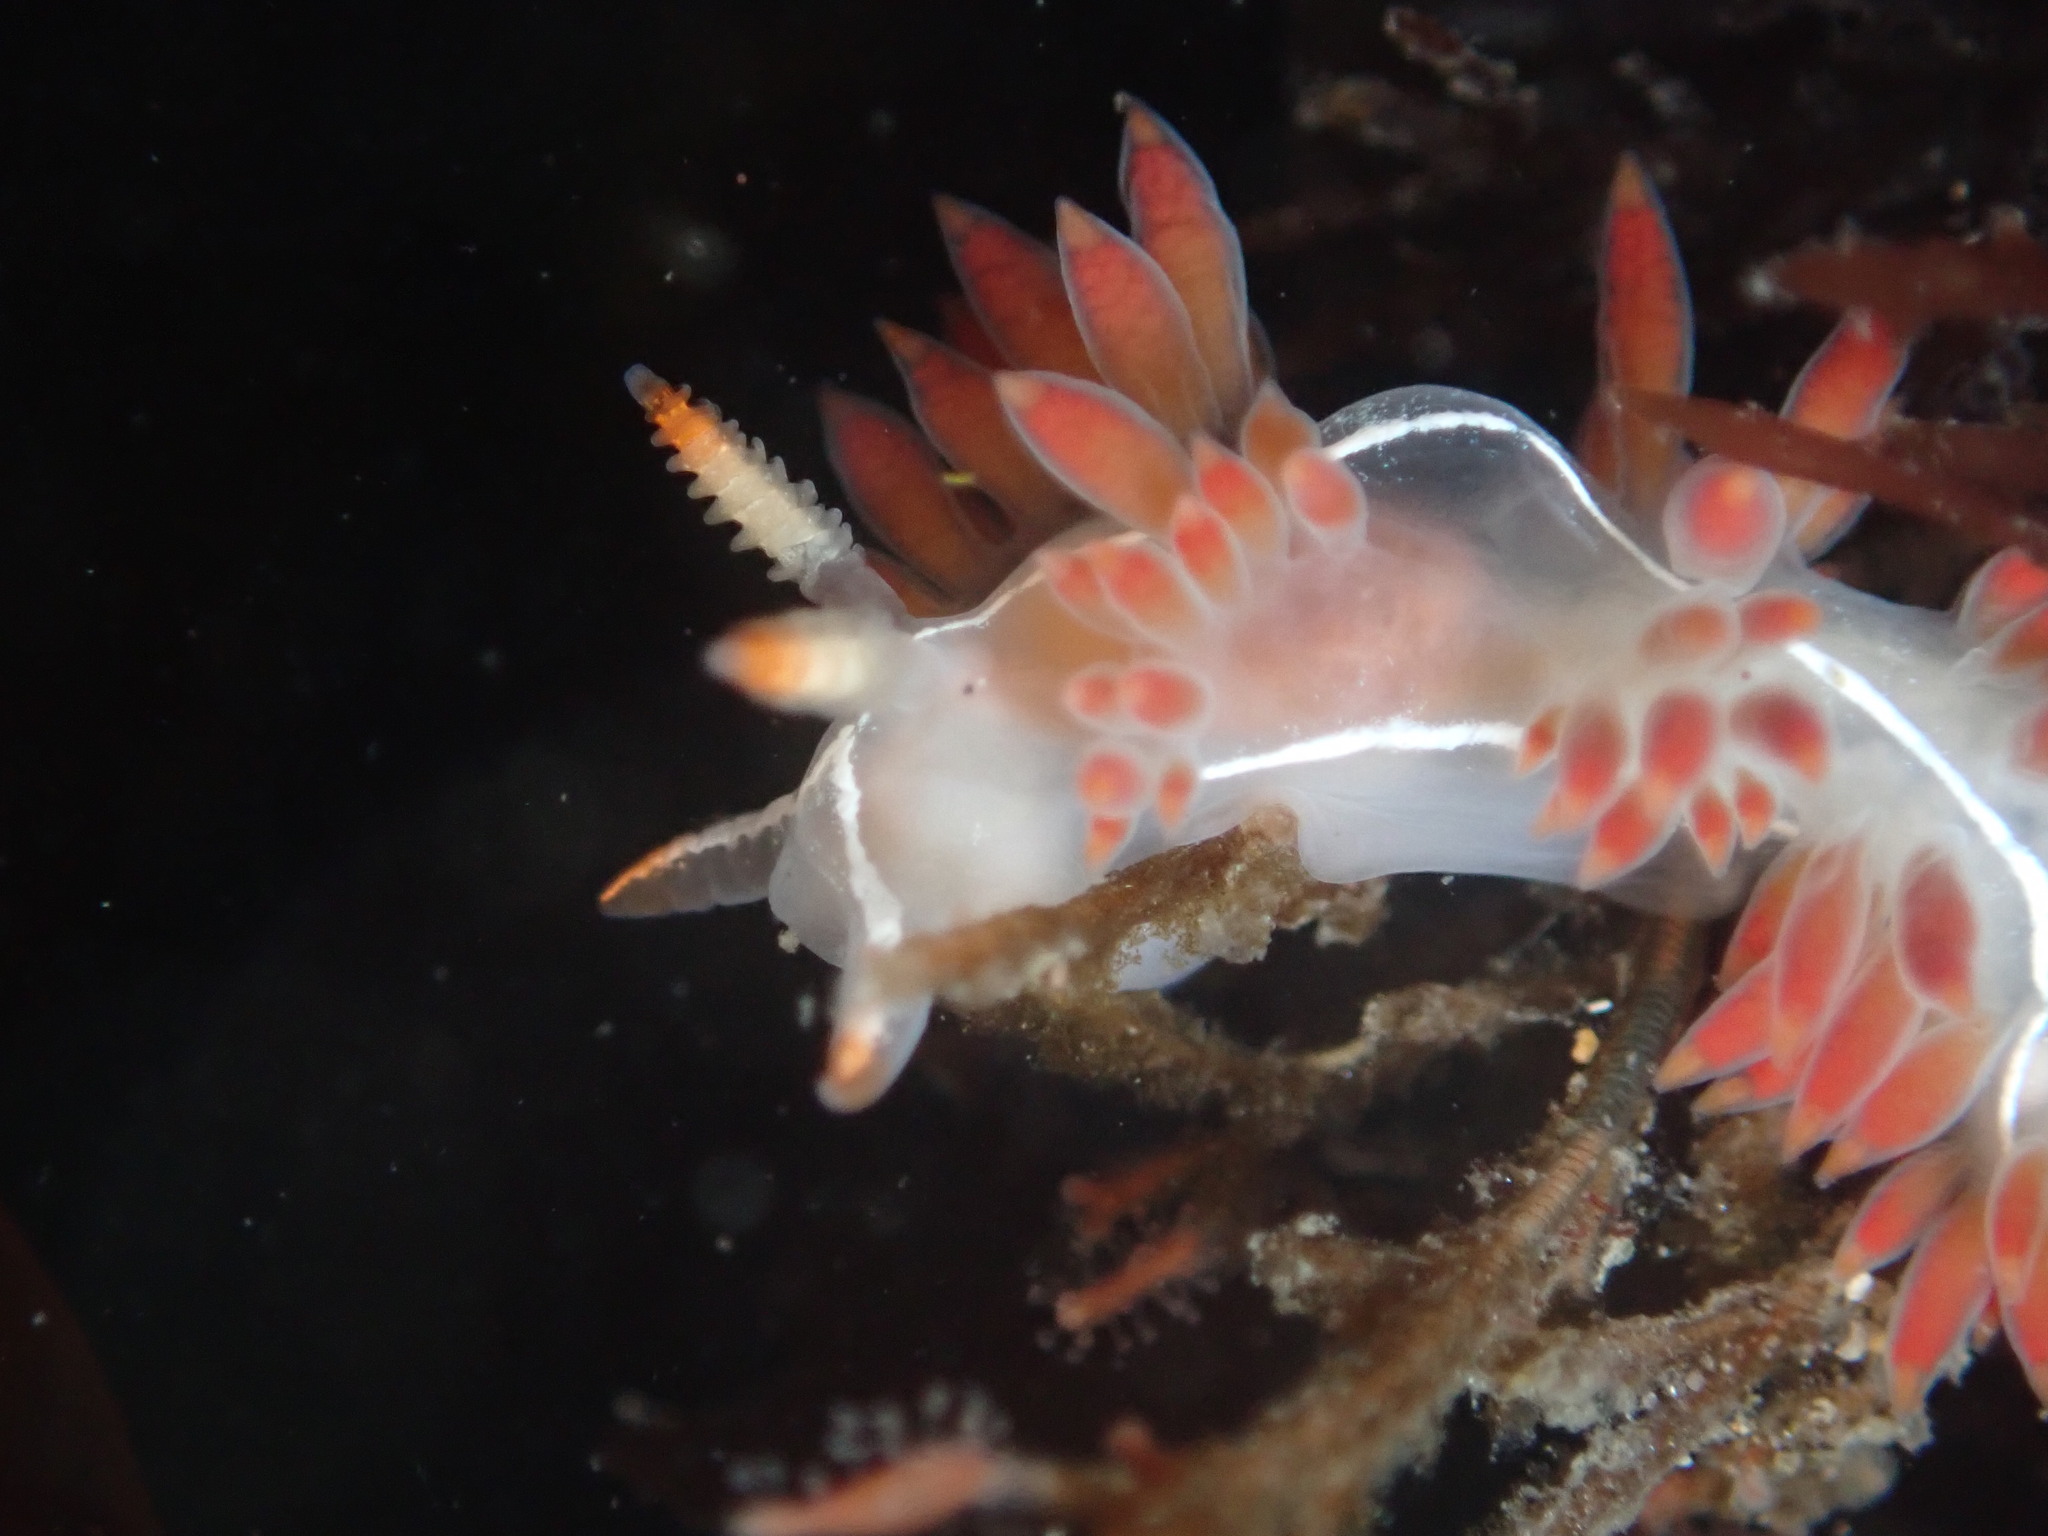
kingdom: Animalia
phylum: Mollusca
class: Gastropoda
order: Nudibranchia
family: Coryphellidae
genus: Coryphella
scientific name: Coryphella trilineata
